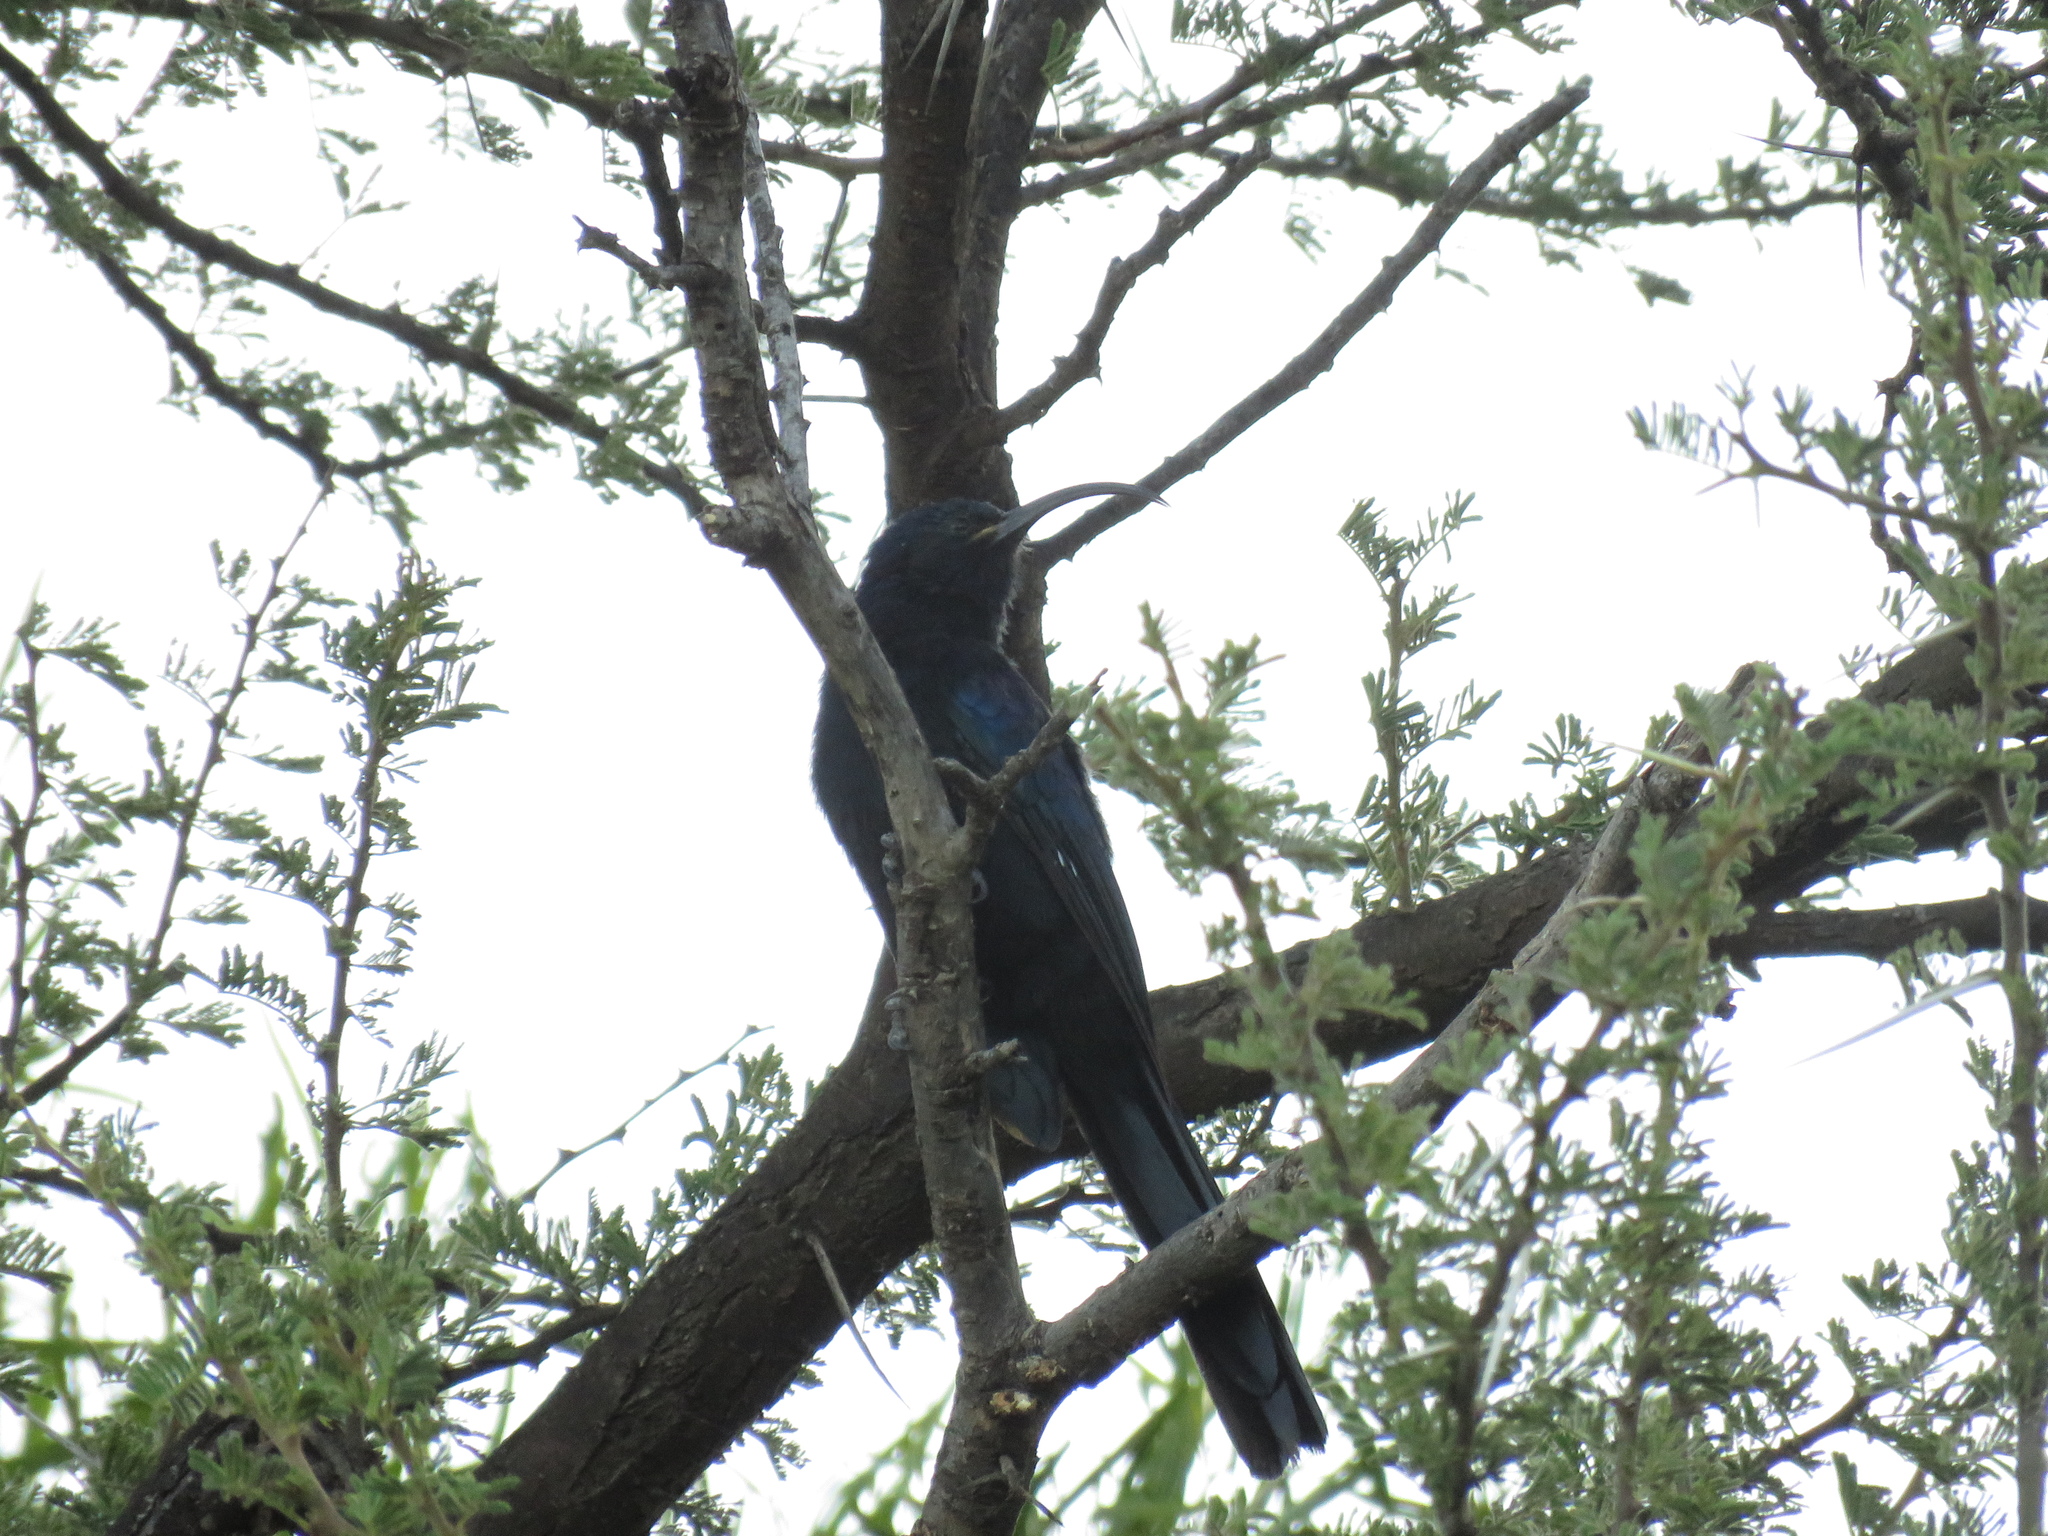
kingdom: Animalia
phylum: Chordata
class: Aves
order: Bucerotiformes
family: Phoeniculidae
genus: Rhinopomastus
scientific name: Rhinopomastus cyanomelas
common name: Common scimitarbill
